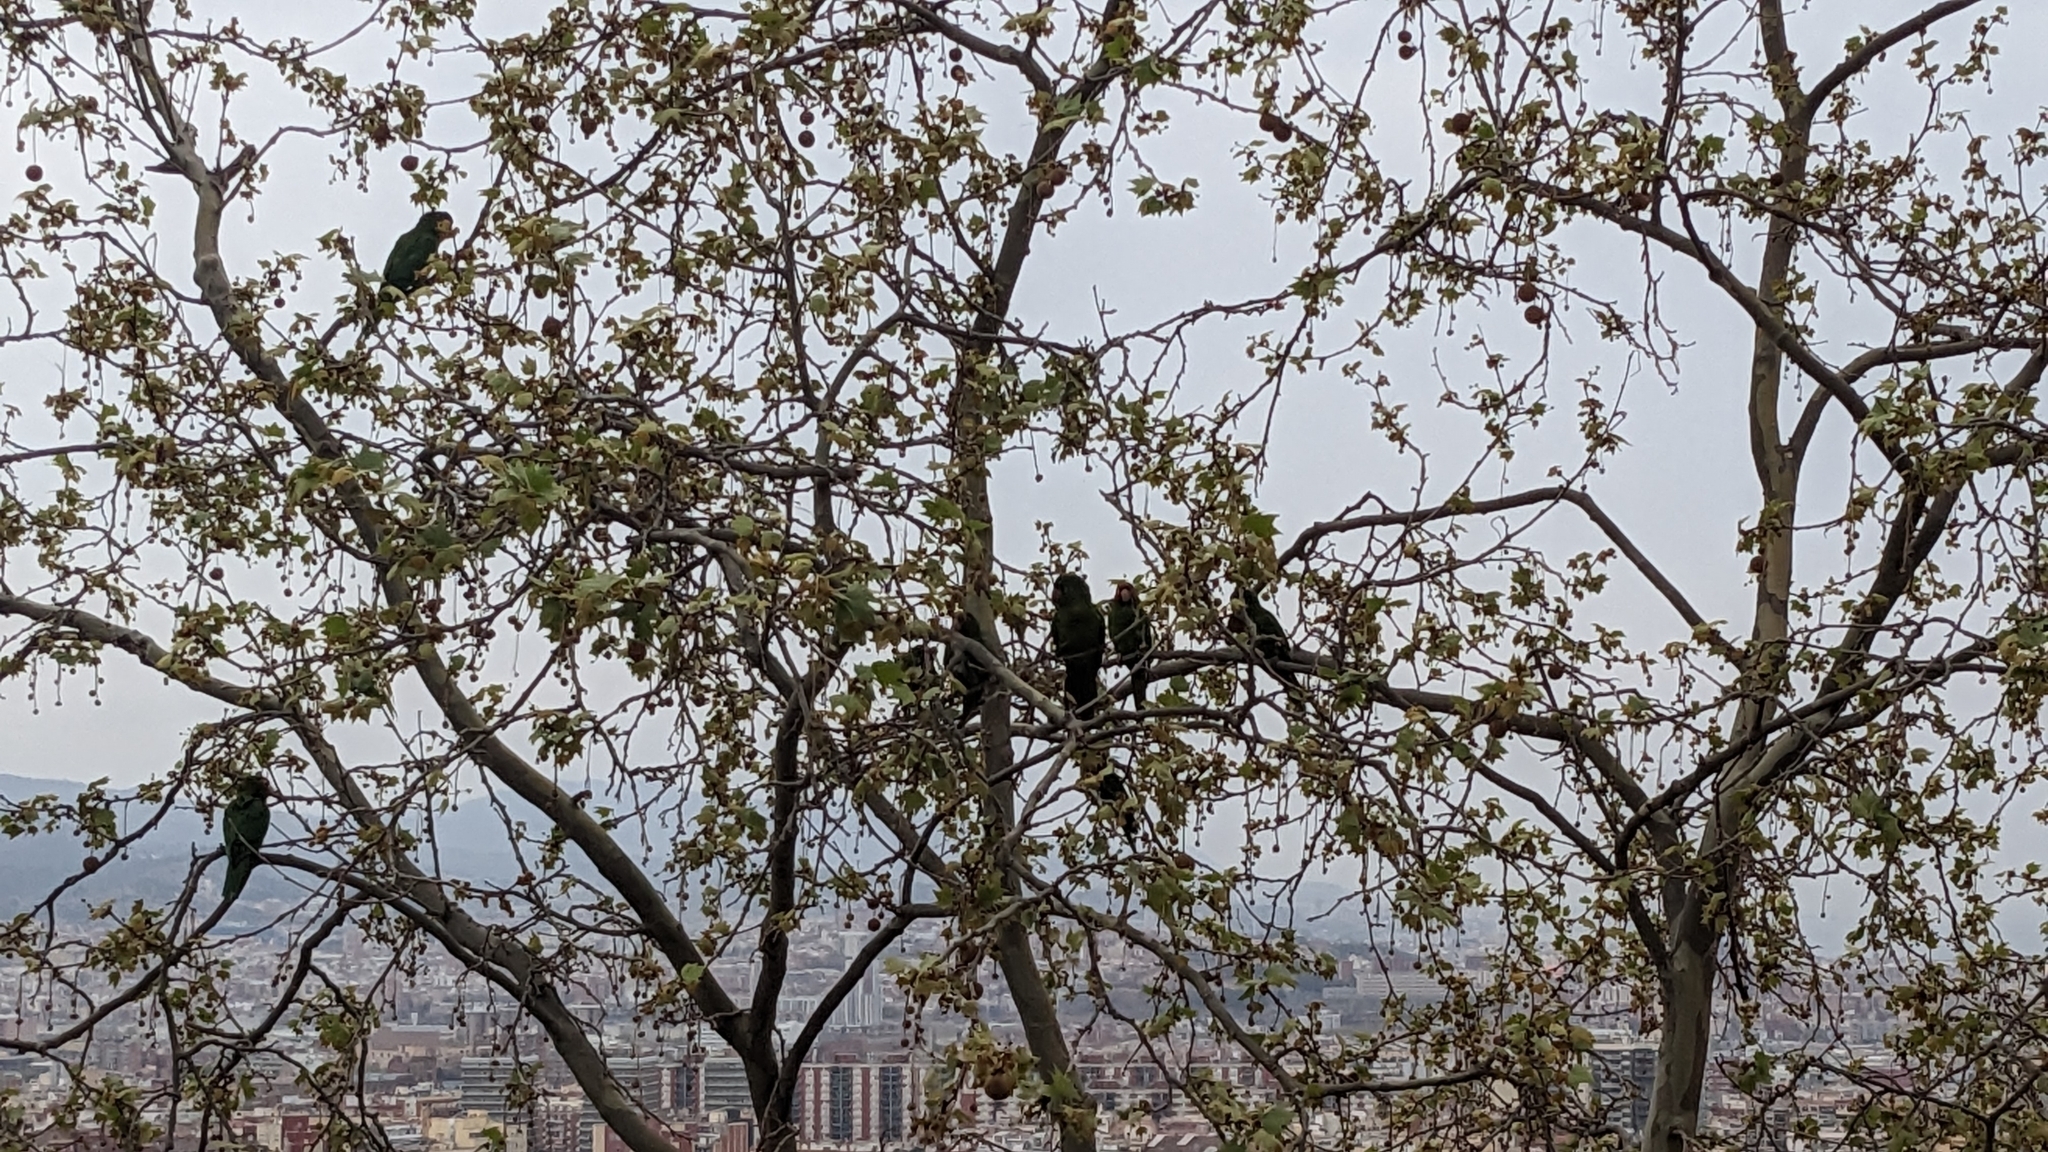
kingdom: Animalia
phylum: Chordata
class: Aves
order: Psittaciformes
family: Psittacidae
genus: Aratinga
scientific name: Aratinga mitrata
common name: Mitred parakeet
